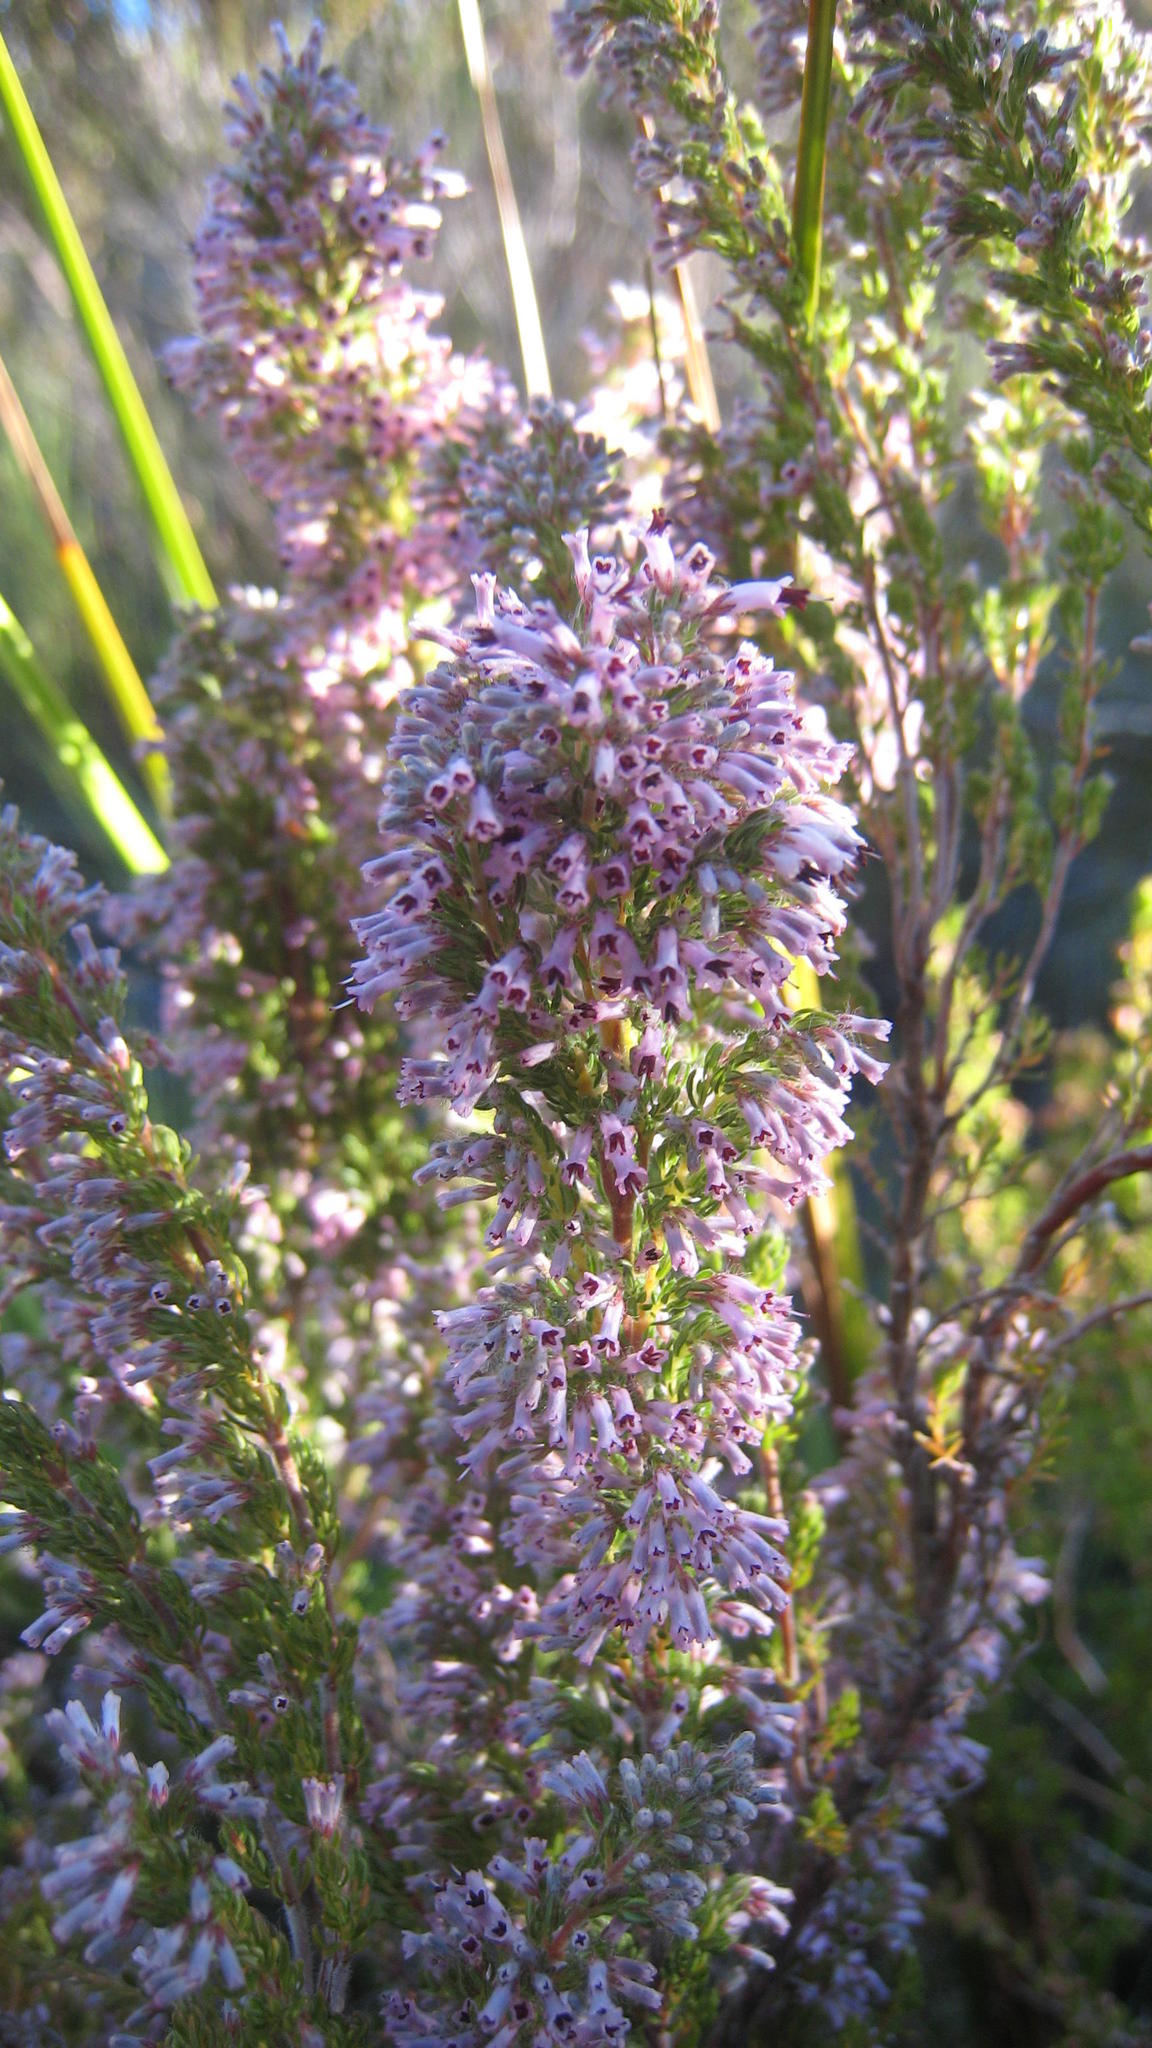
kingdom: Plantae
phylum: Tracheophyta
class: Magnoliopsida
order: Ericales
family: Ericaceae
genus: Erica
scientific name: Erica longimontana
